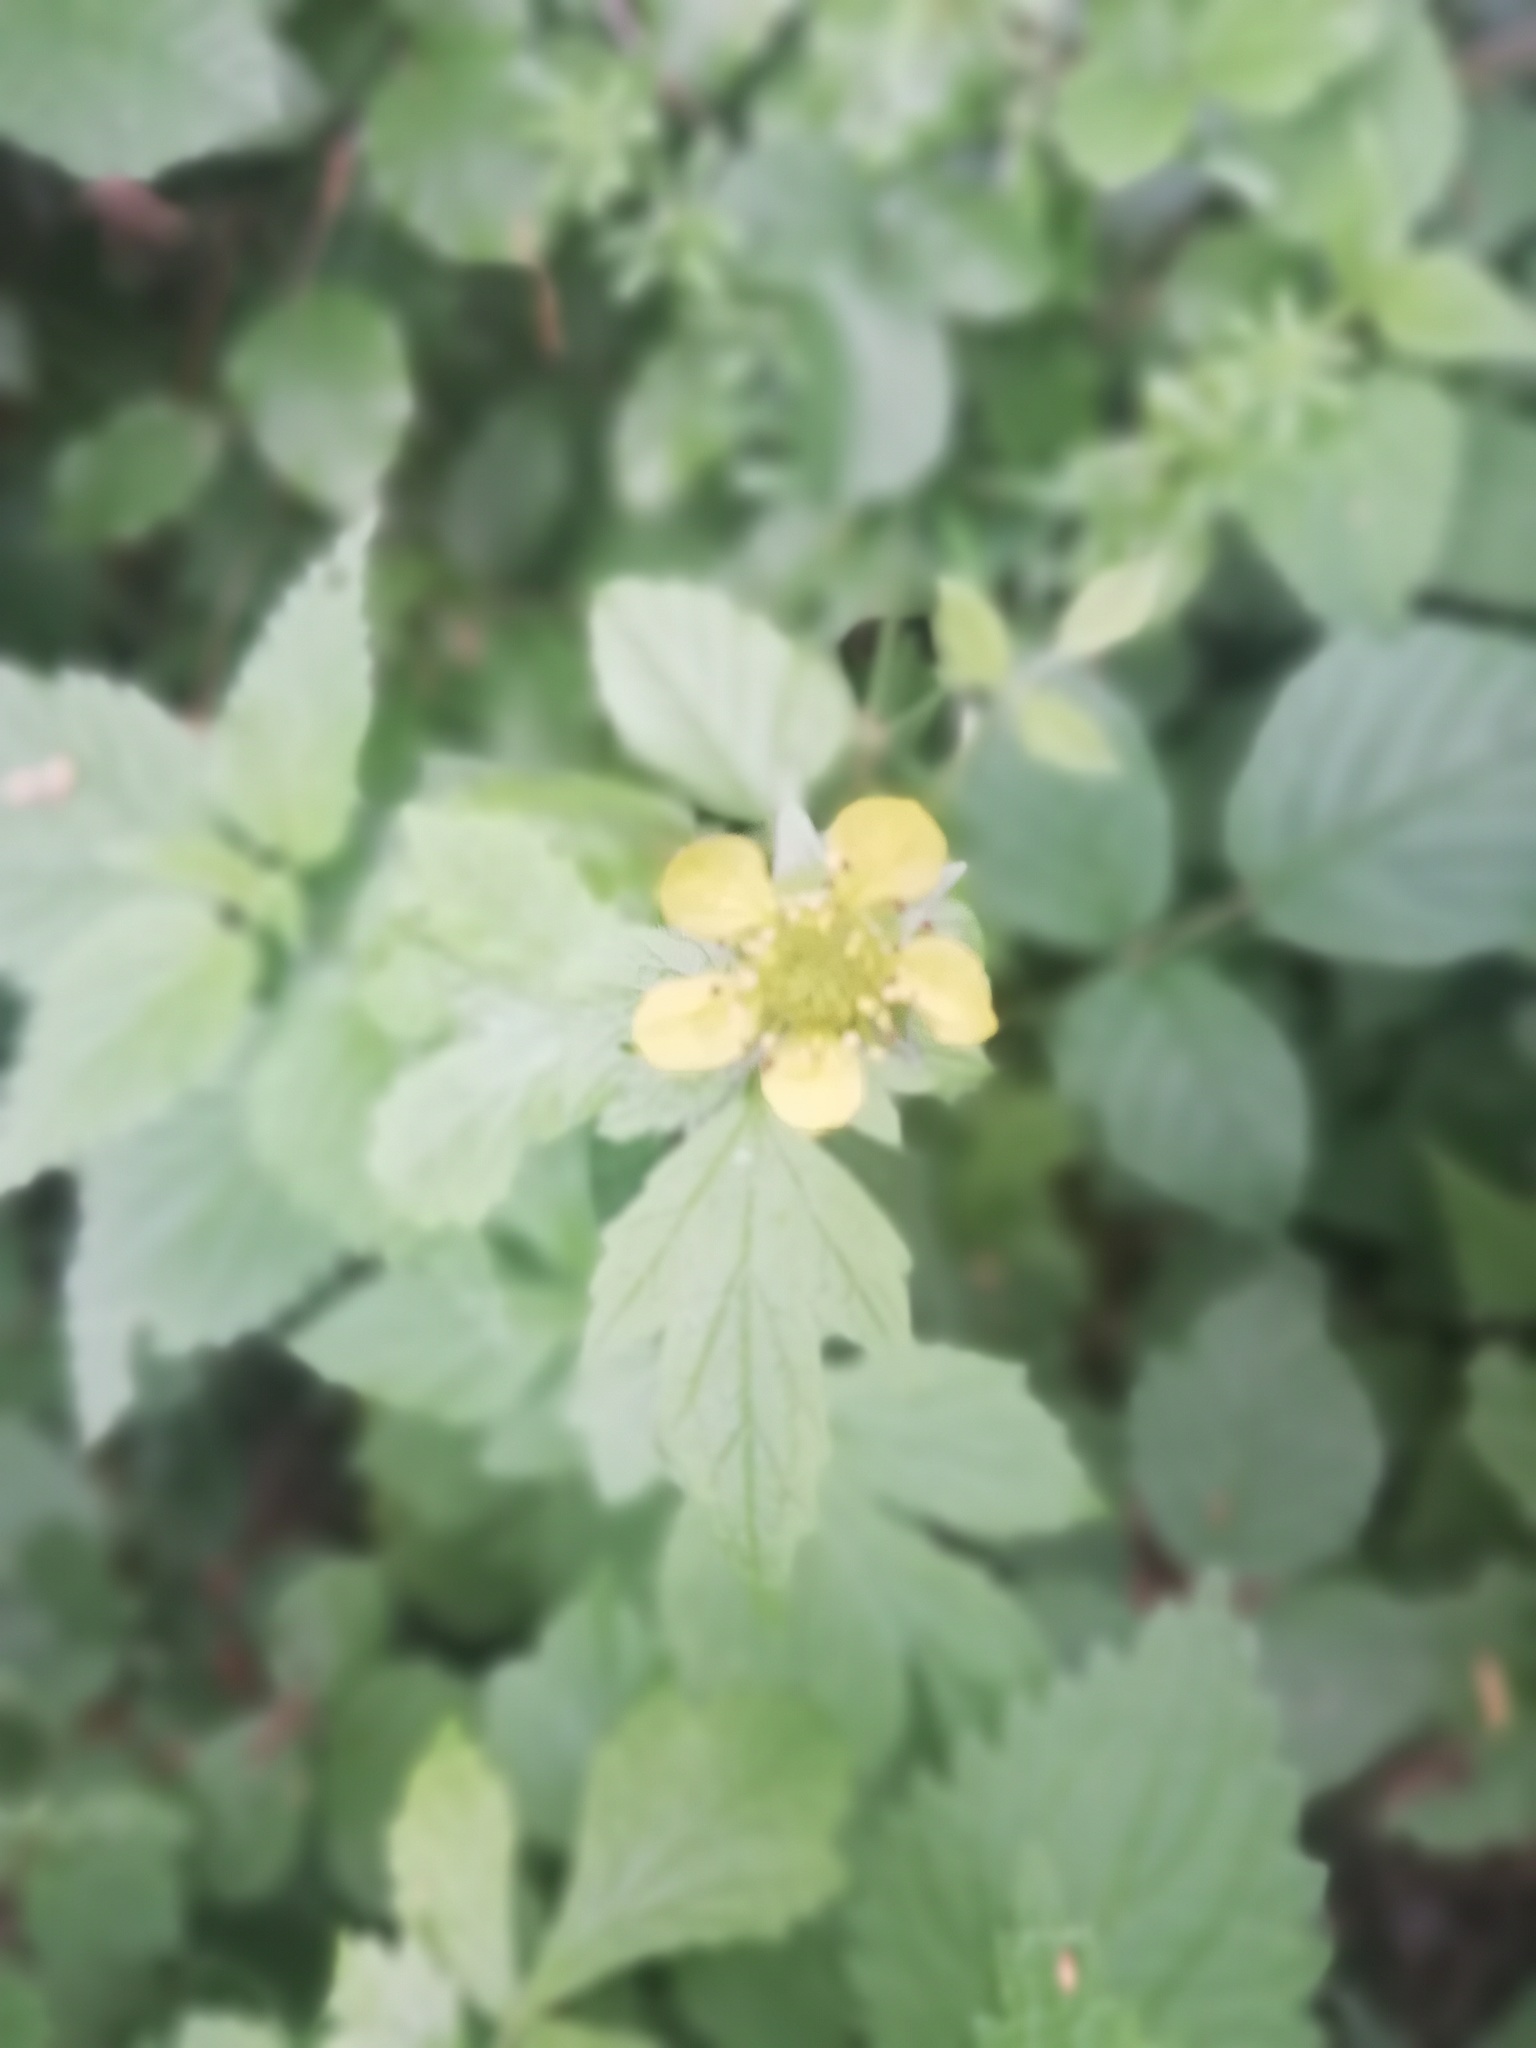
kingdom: Plantae
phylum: Tracheophyta
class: Magnoliopsida
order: Rosales
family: Rosaceae
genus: Geum
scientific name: Geum urbanum
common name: Wood avens
